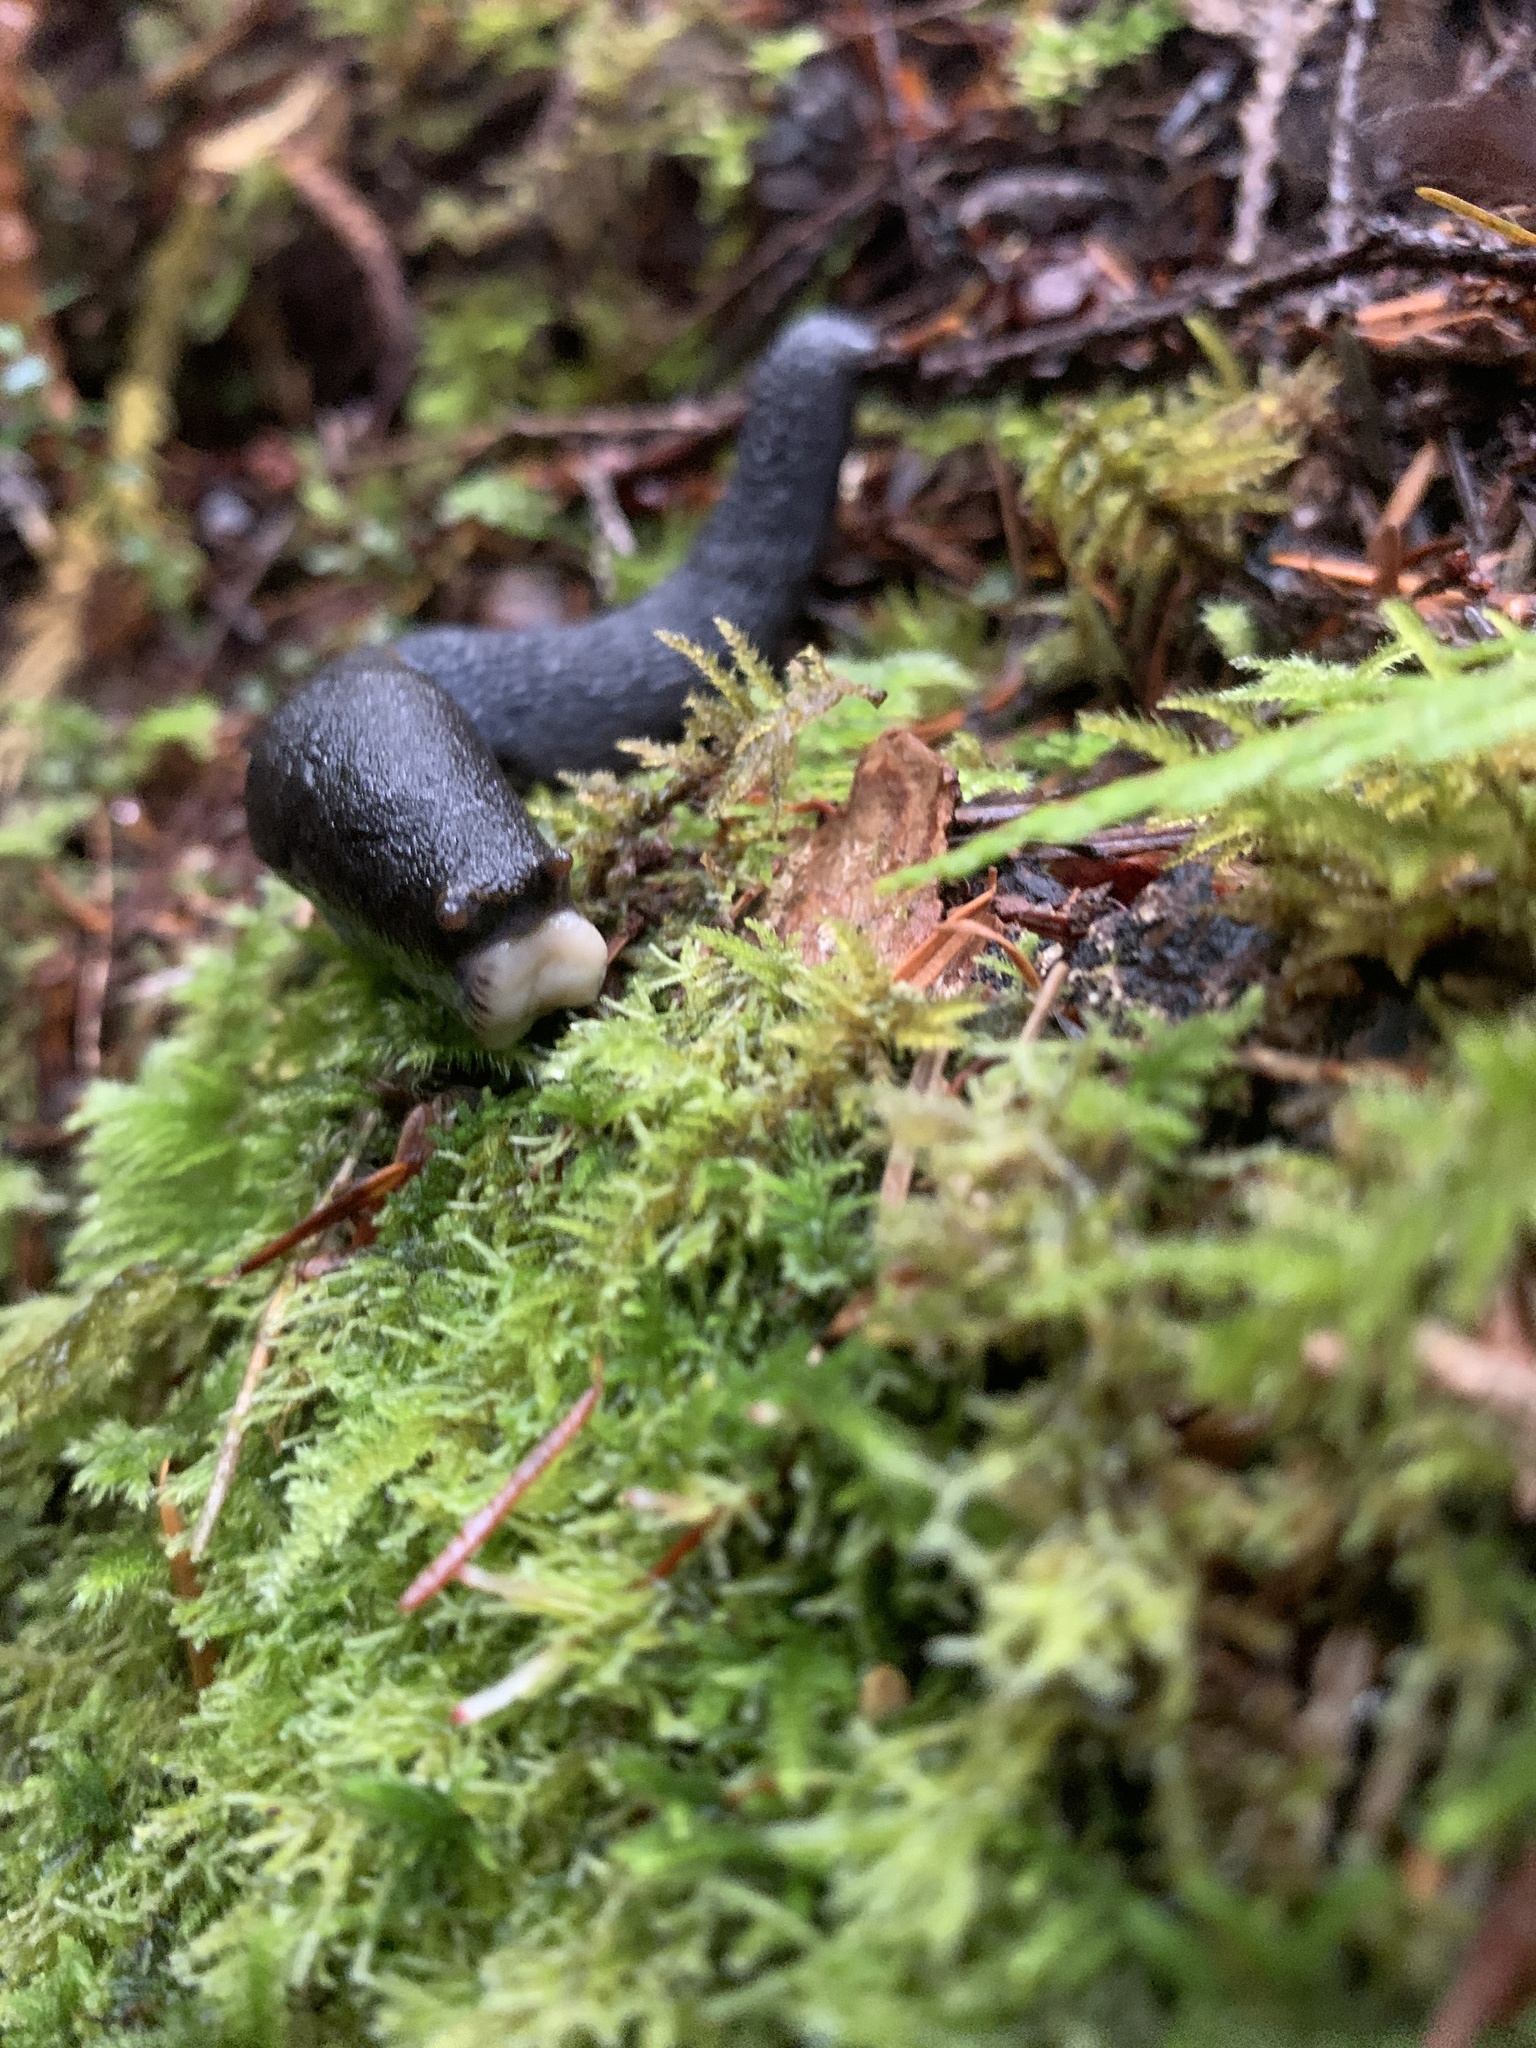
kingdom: Animalia
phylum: Mollusca
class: Gastropoda
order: Stylommatophora
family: Ariolimacidae
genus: Prophysaon
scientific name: Prophysaon foliolatum
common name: Yellow-bordered taildropper
